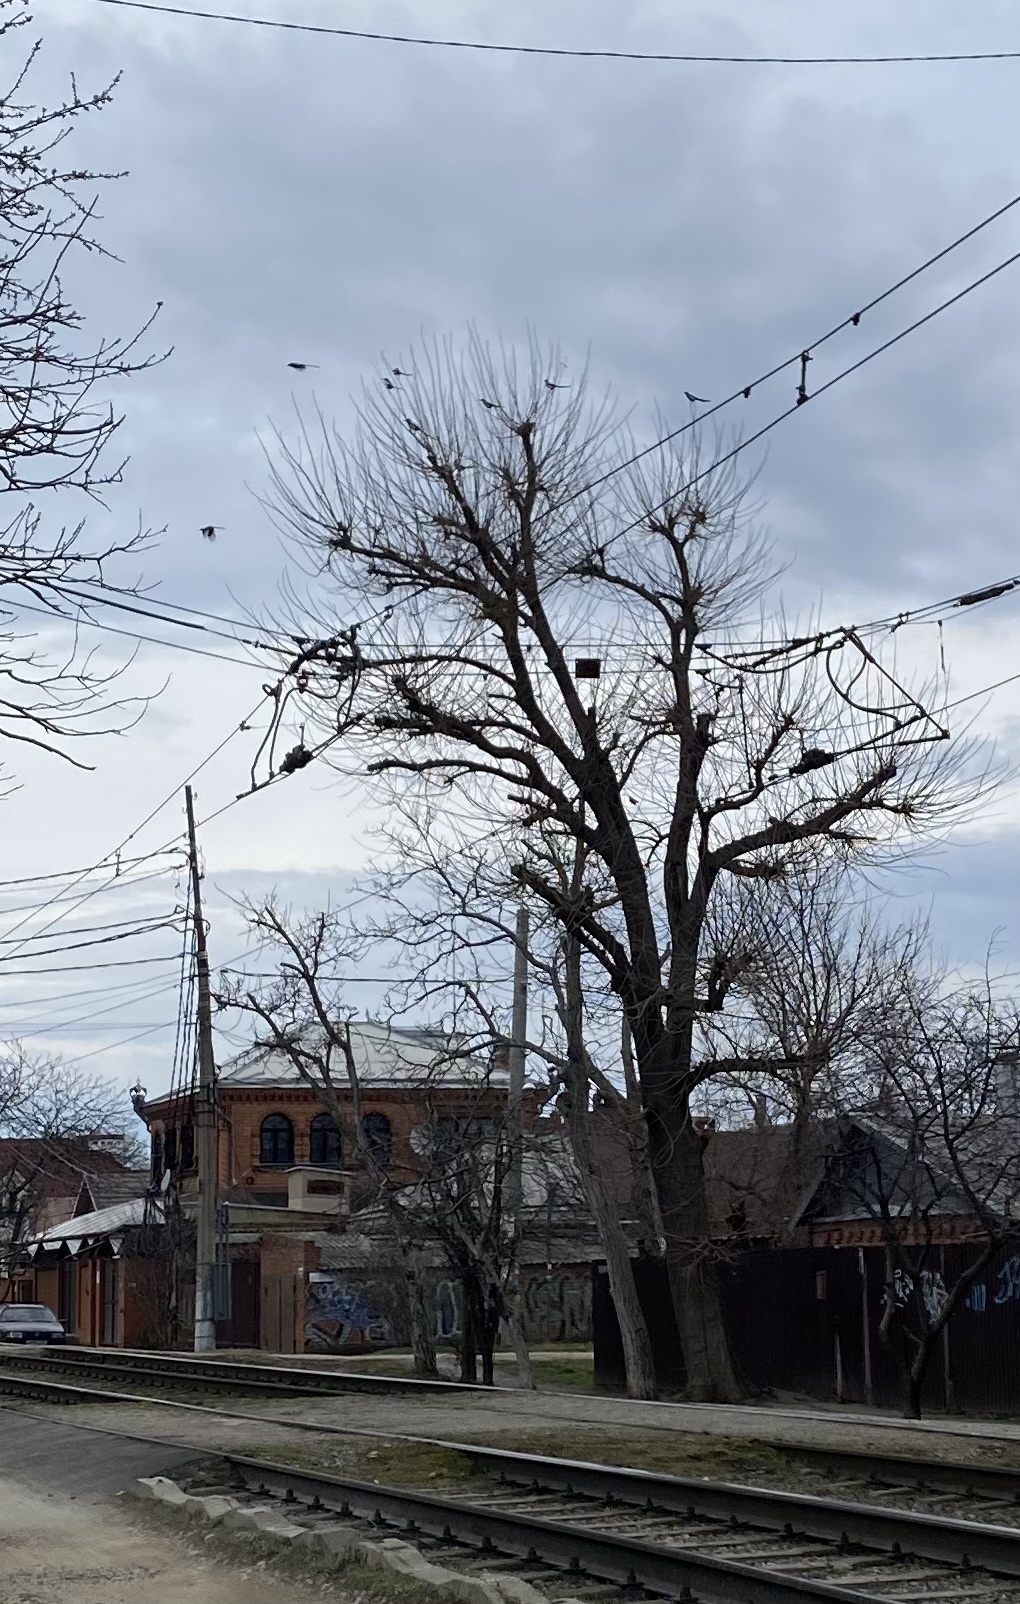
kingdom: Animalia
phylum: Chordata
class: Aves
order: Passeriformes
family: Corvidae
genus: Pica
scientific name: Pica pica
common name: Eurasian magpie
